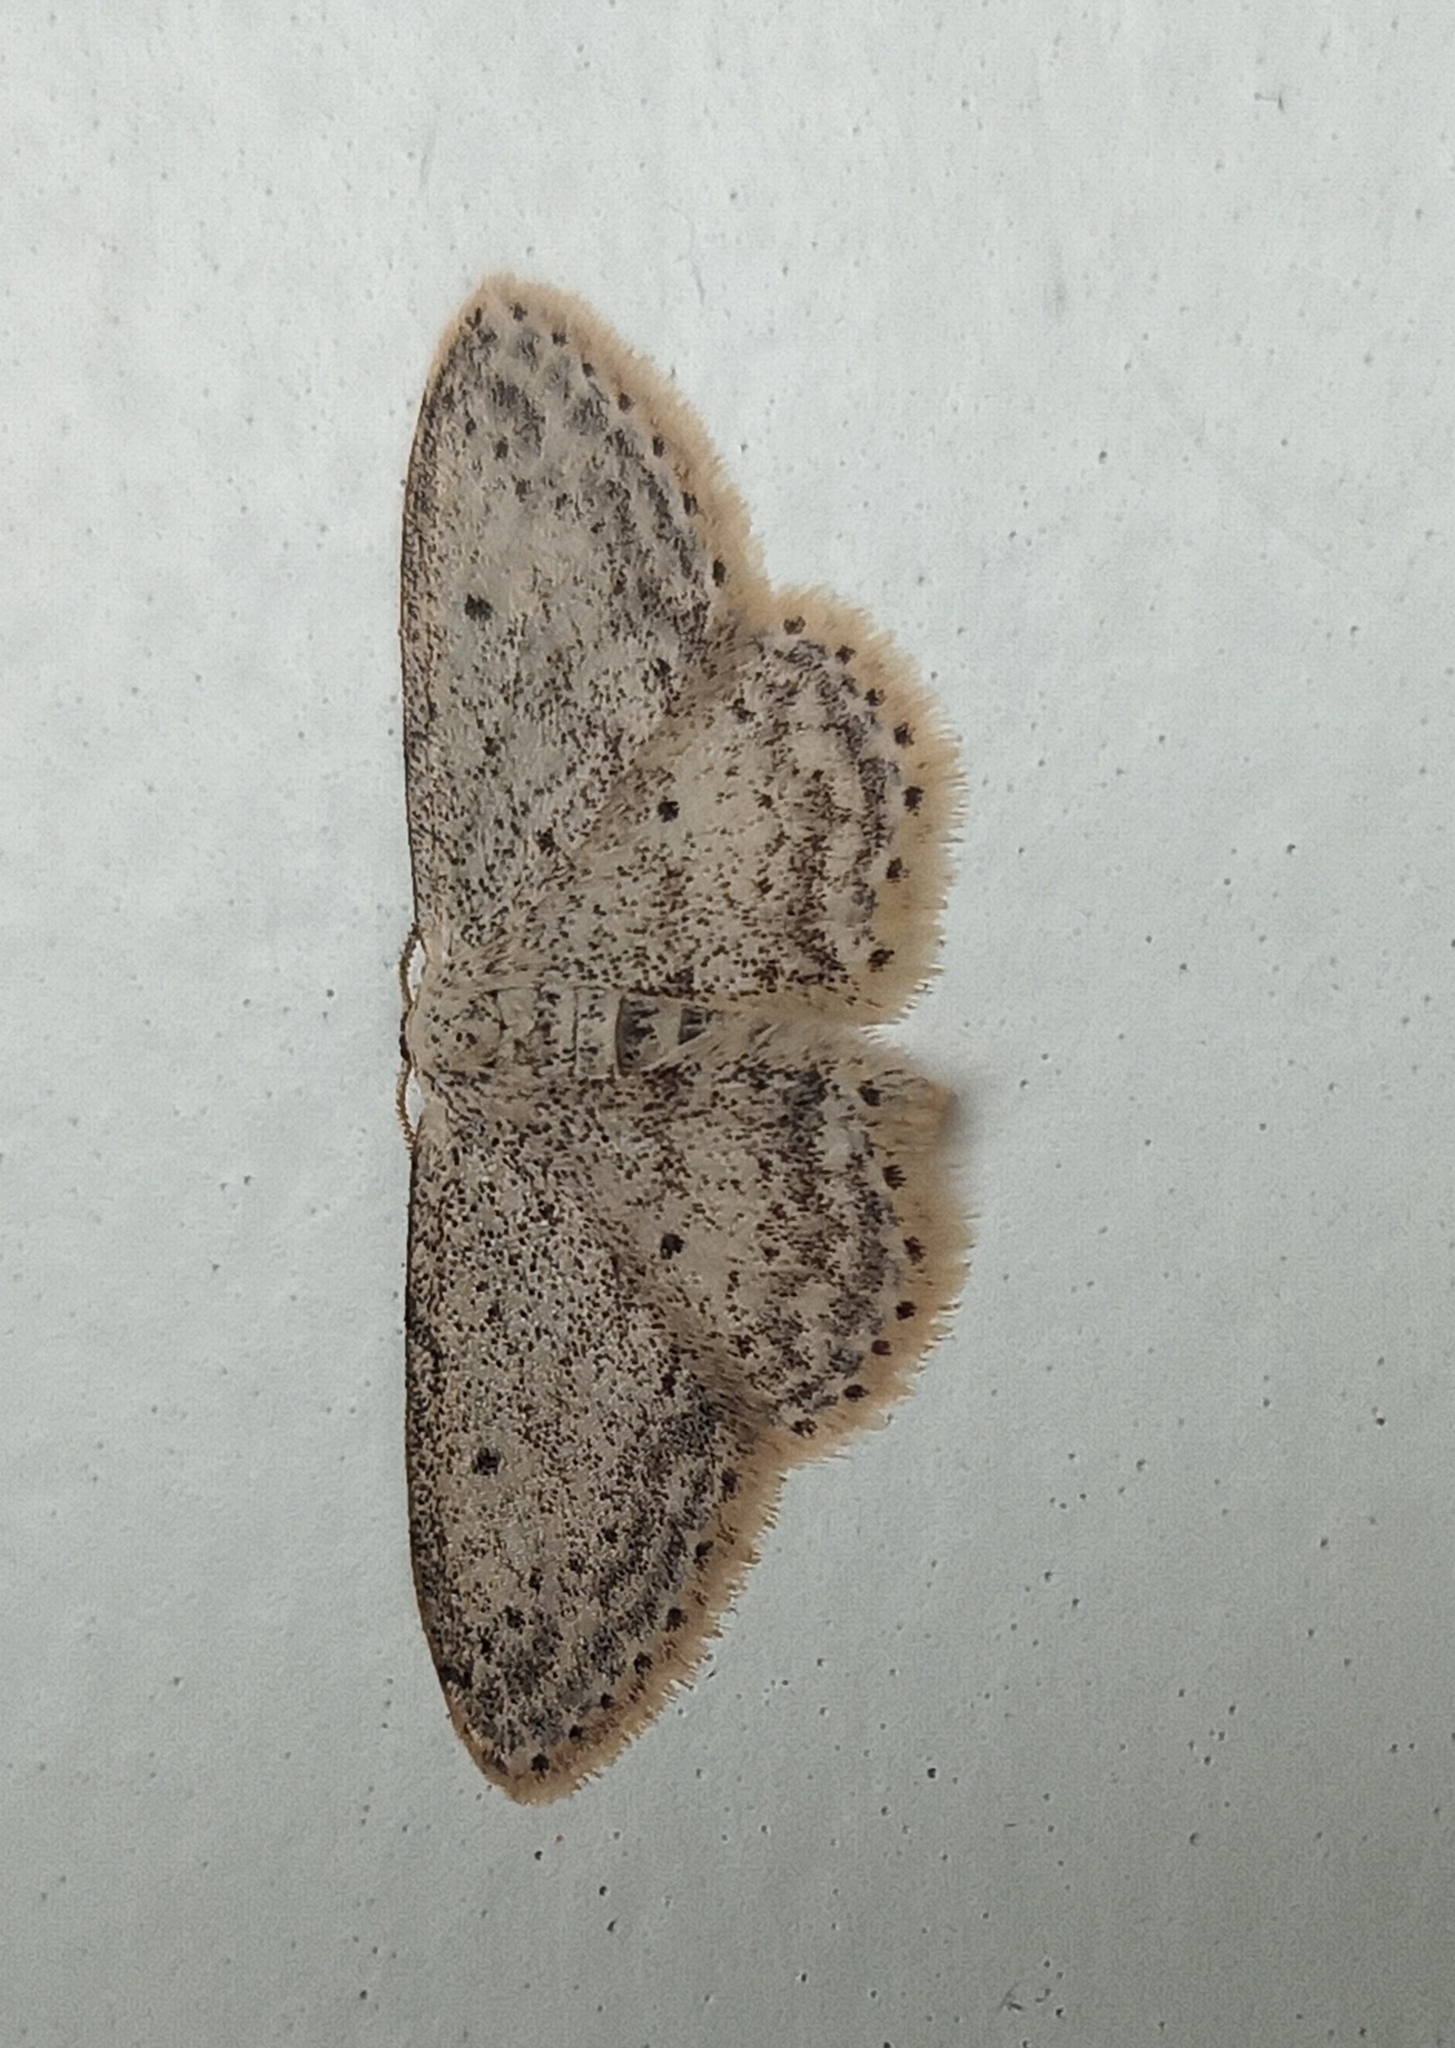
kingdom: Animalia
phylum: Arthropoda
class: Insecta
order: Lepidoptera
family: Geometridae
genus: Idaea
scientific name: Idaea seriata
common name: Small dusty wave
